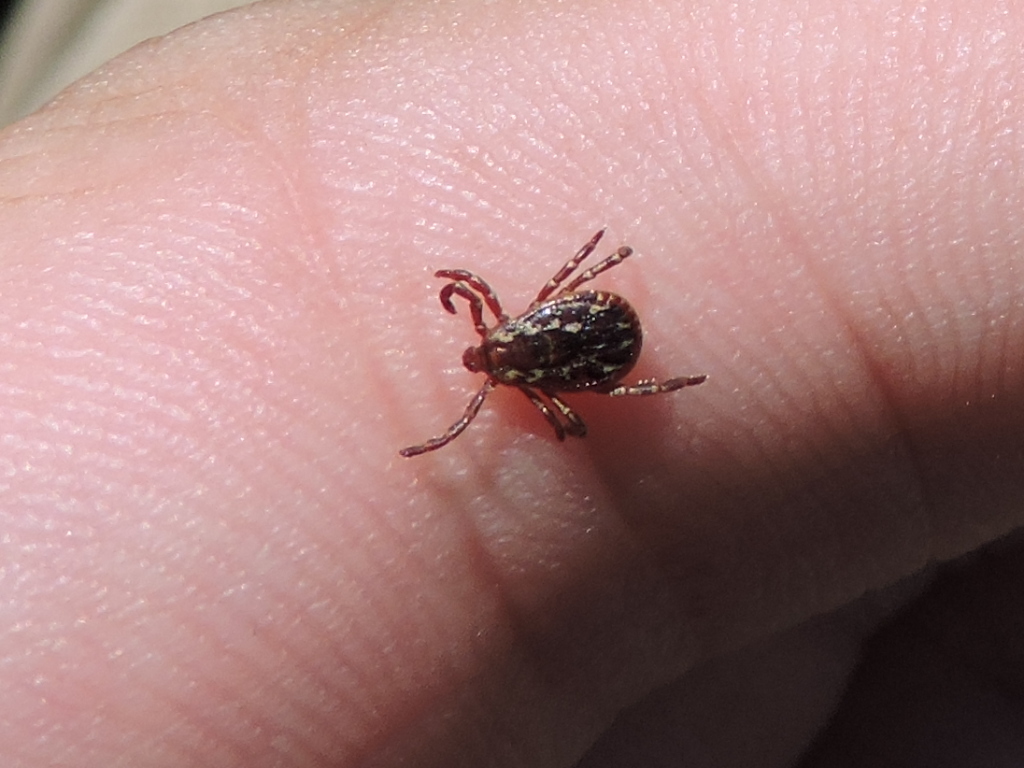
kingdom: Animalia
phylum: Arthropoda
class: Arachnida
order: Ixodida
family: Ixodidae
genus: Dermacentor
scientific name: Dermacentor variabilis
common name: American dog tick
